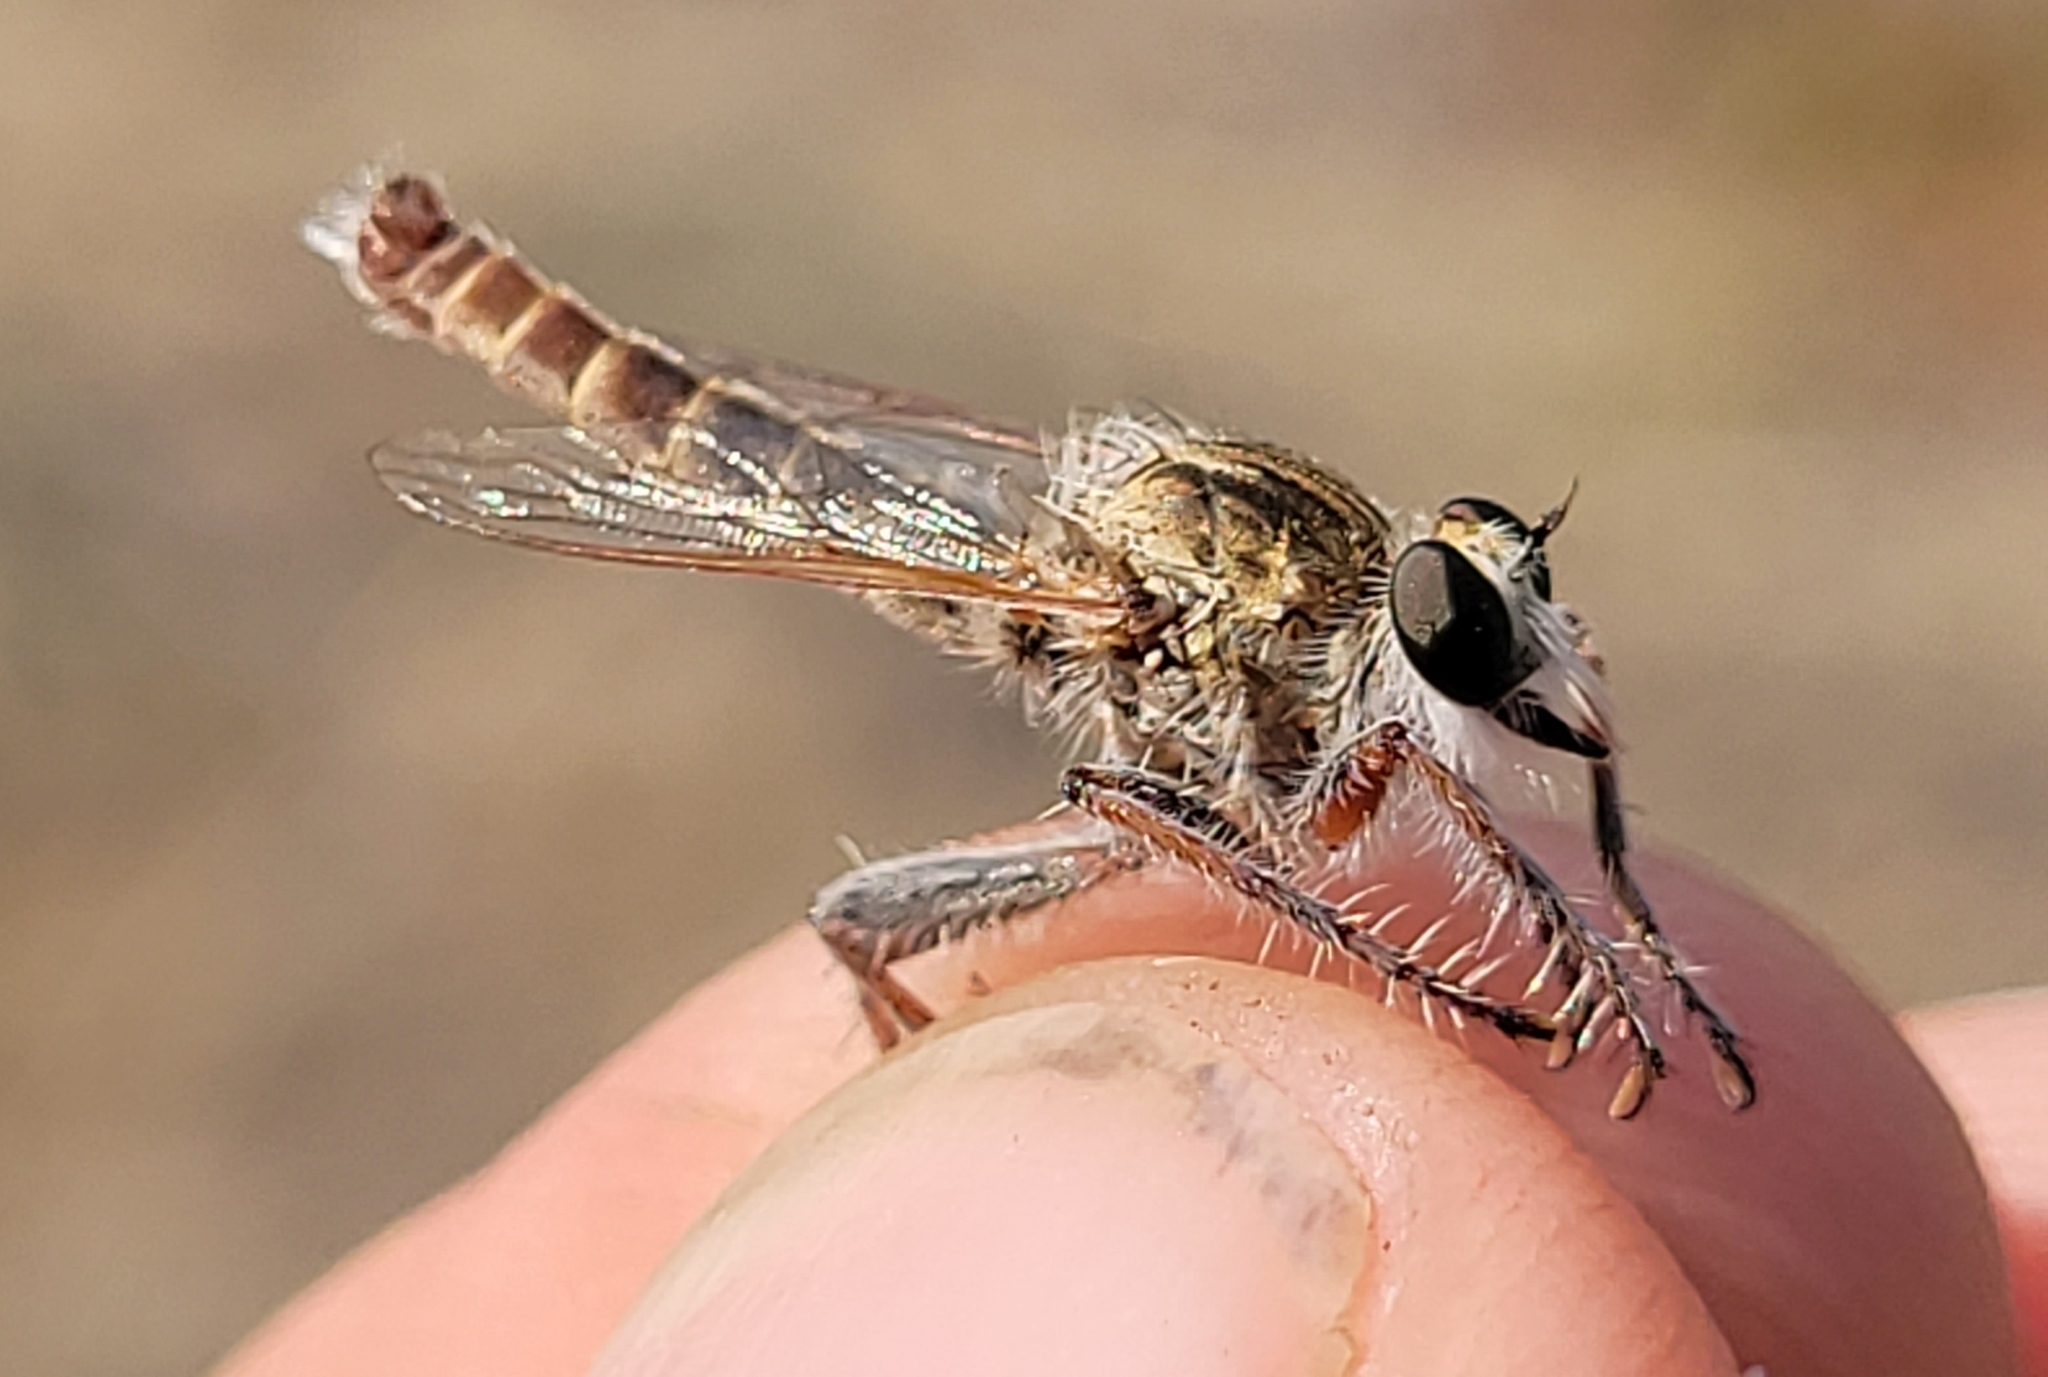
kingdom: Animalia
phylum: Arthropoda
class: Insecta
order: Diptera
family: Asilidae
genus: Proctacanthella
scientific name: Proctacanthella cacopiloga
